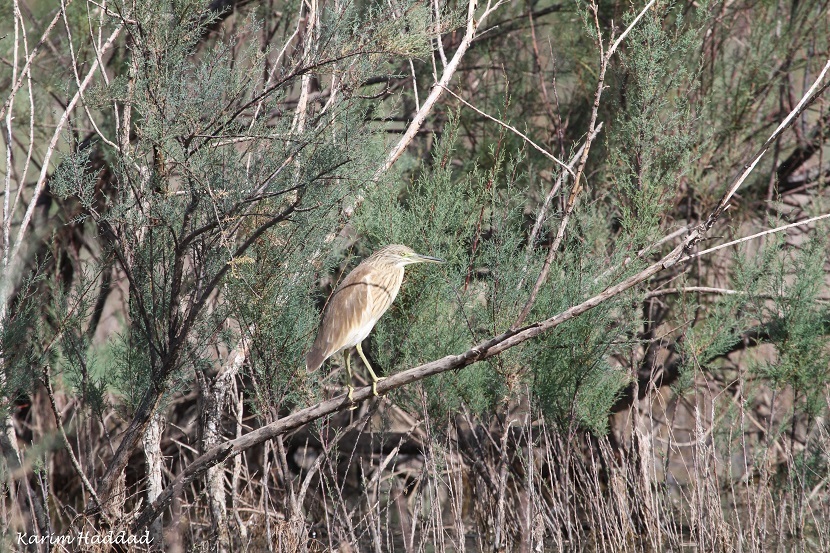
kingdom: Animalia
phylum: Chordata
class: Aves
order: Pelecaniformes
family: Ardeidae
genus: Ardeola
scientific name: Ardeola ralloides
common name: Squacco heron
